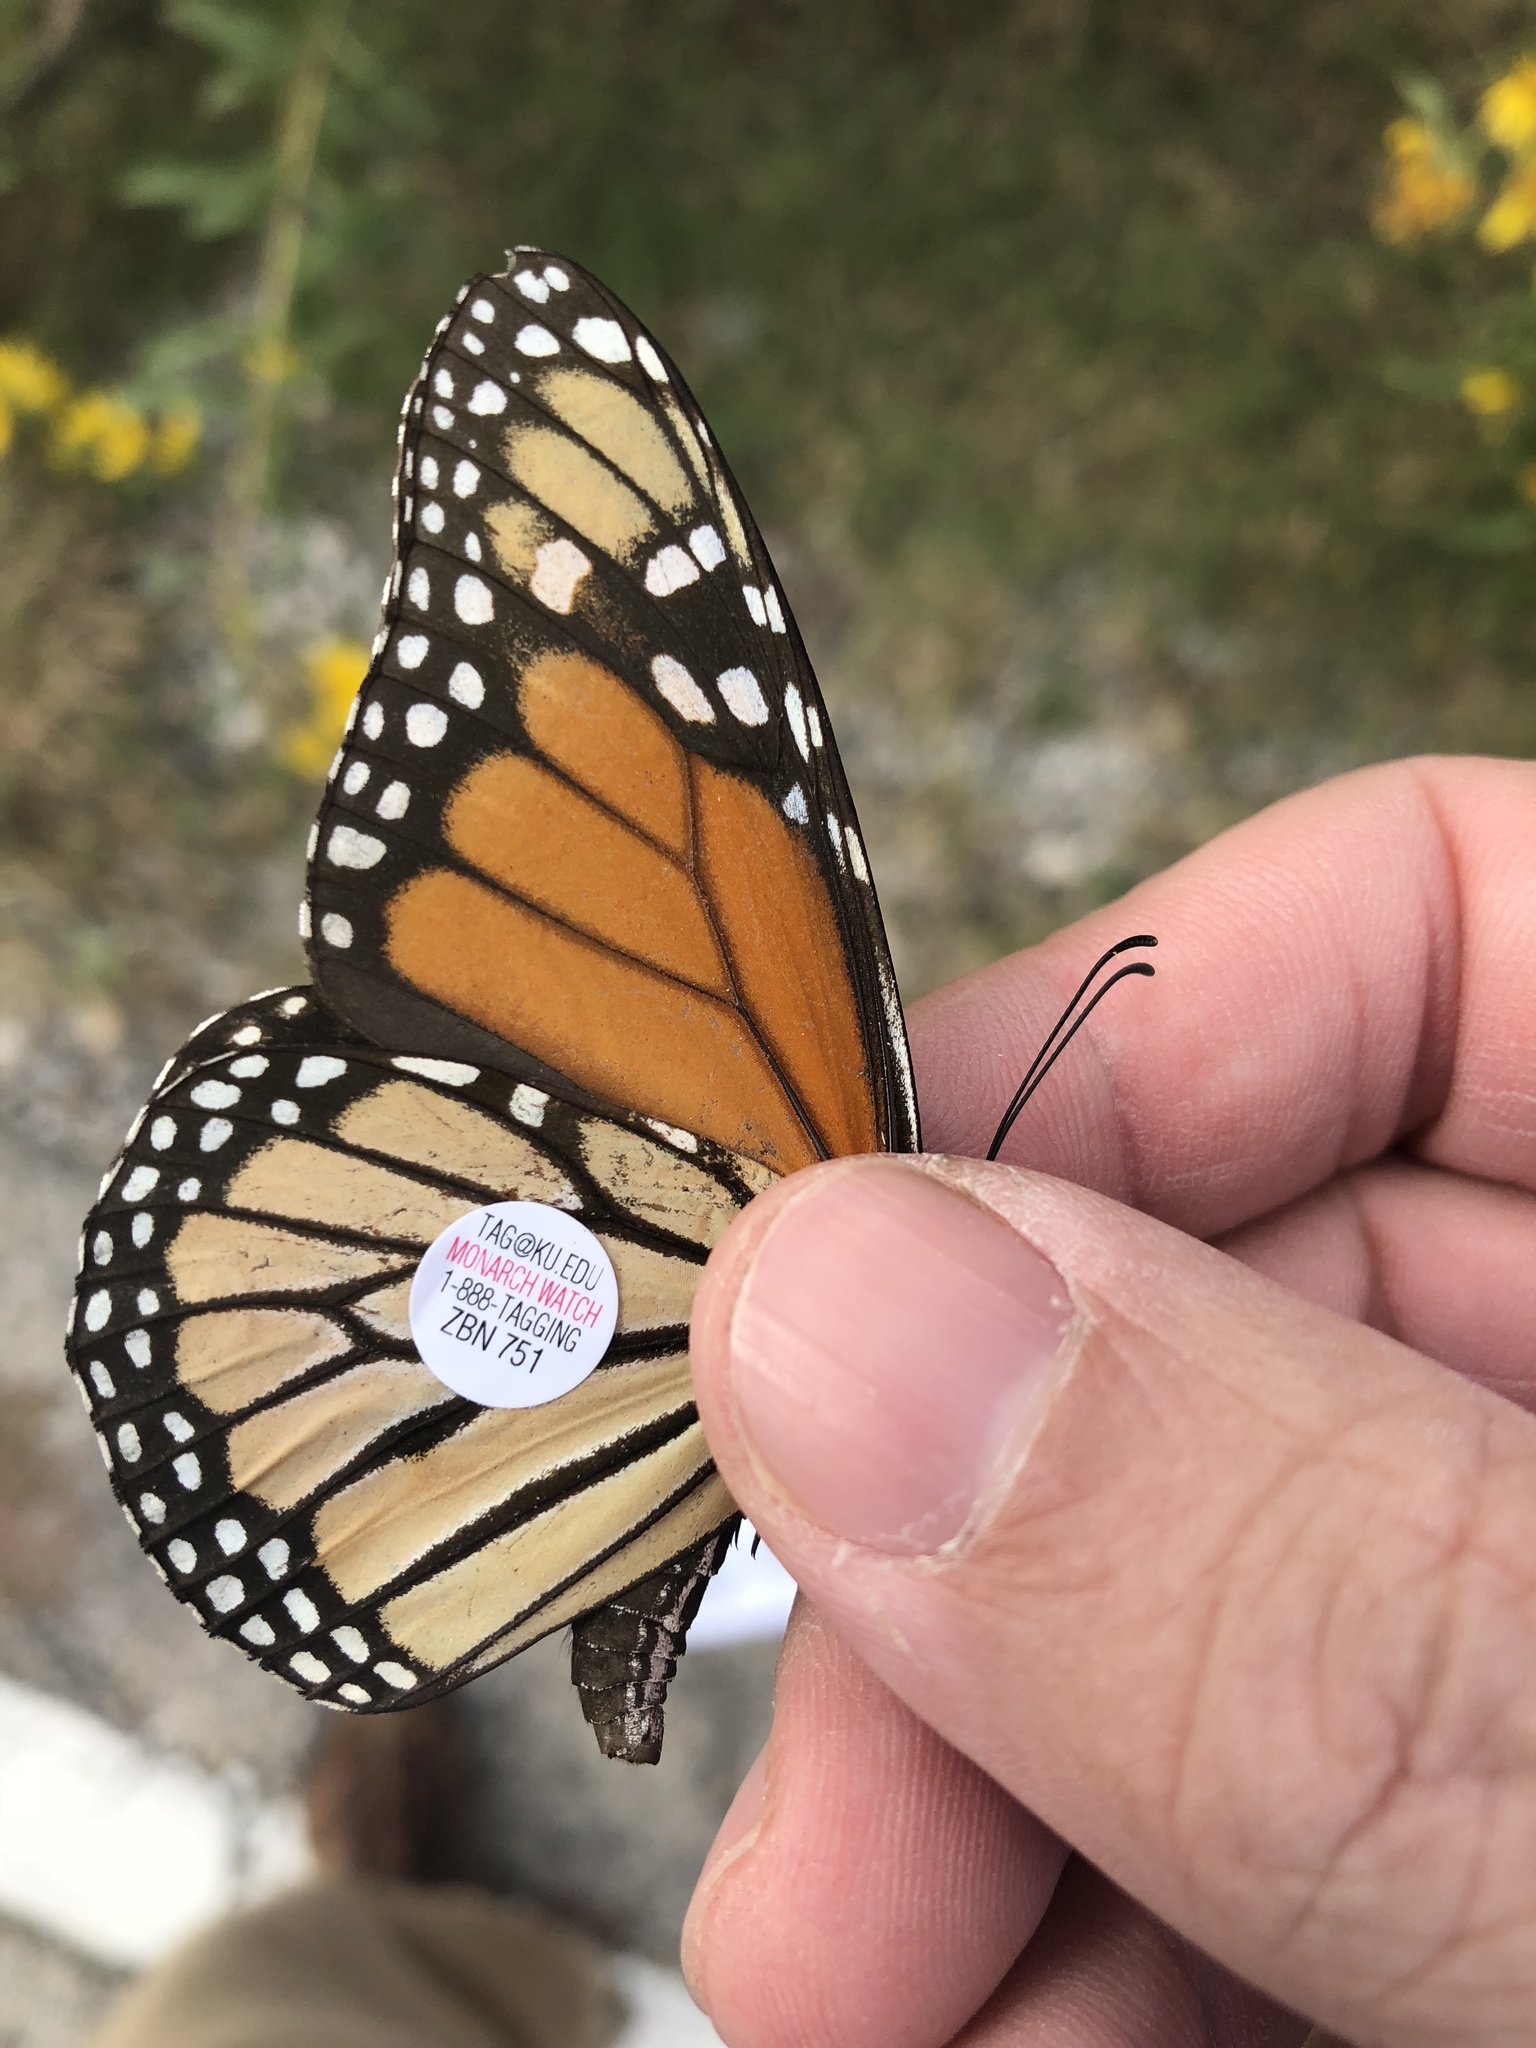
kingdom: Animalia
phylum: Arthropoda
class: Insecta
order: Lepidoptera
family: Nymphalidae
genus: Danaus
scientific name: Danaus plexippus
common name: Monarch
